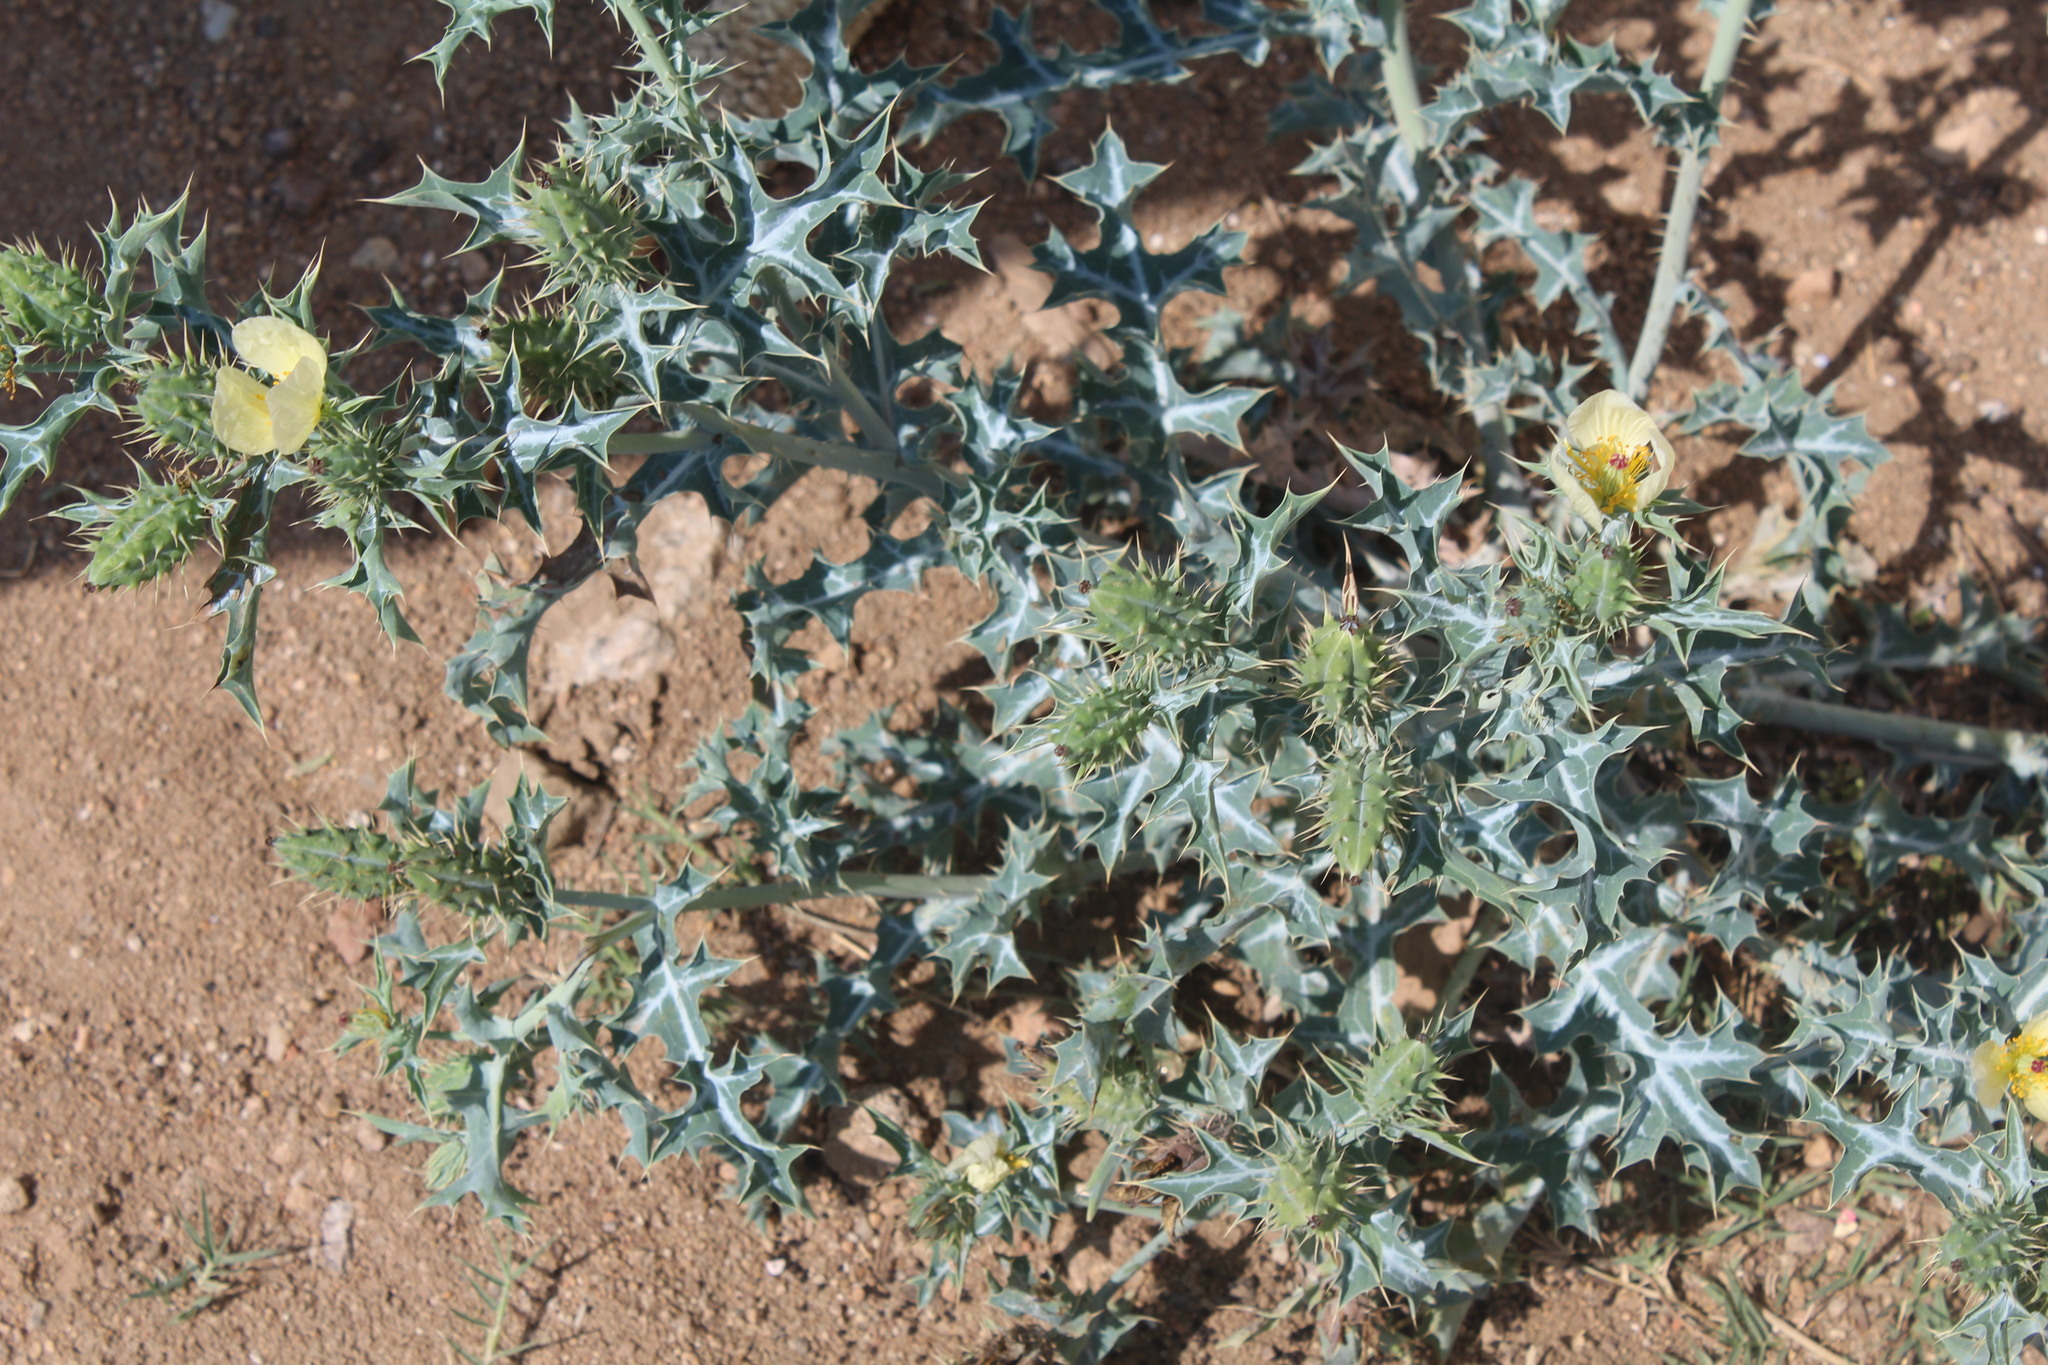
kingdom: Plantae
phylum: Tracheophyta
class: Magnoliopsida
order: Ranunculales
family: Papaveraceae
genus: Argemone
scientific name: Argemone ochroleuca
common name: White-flower mexican-poppy
